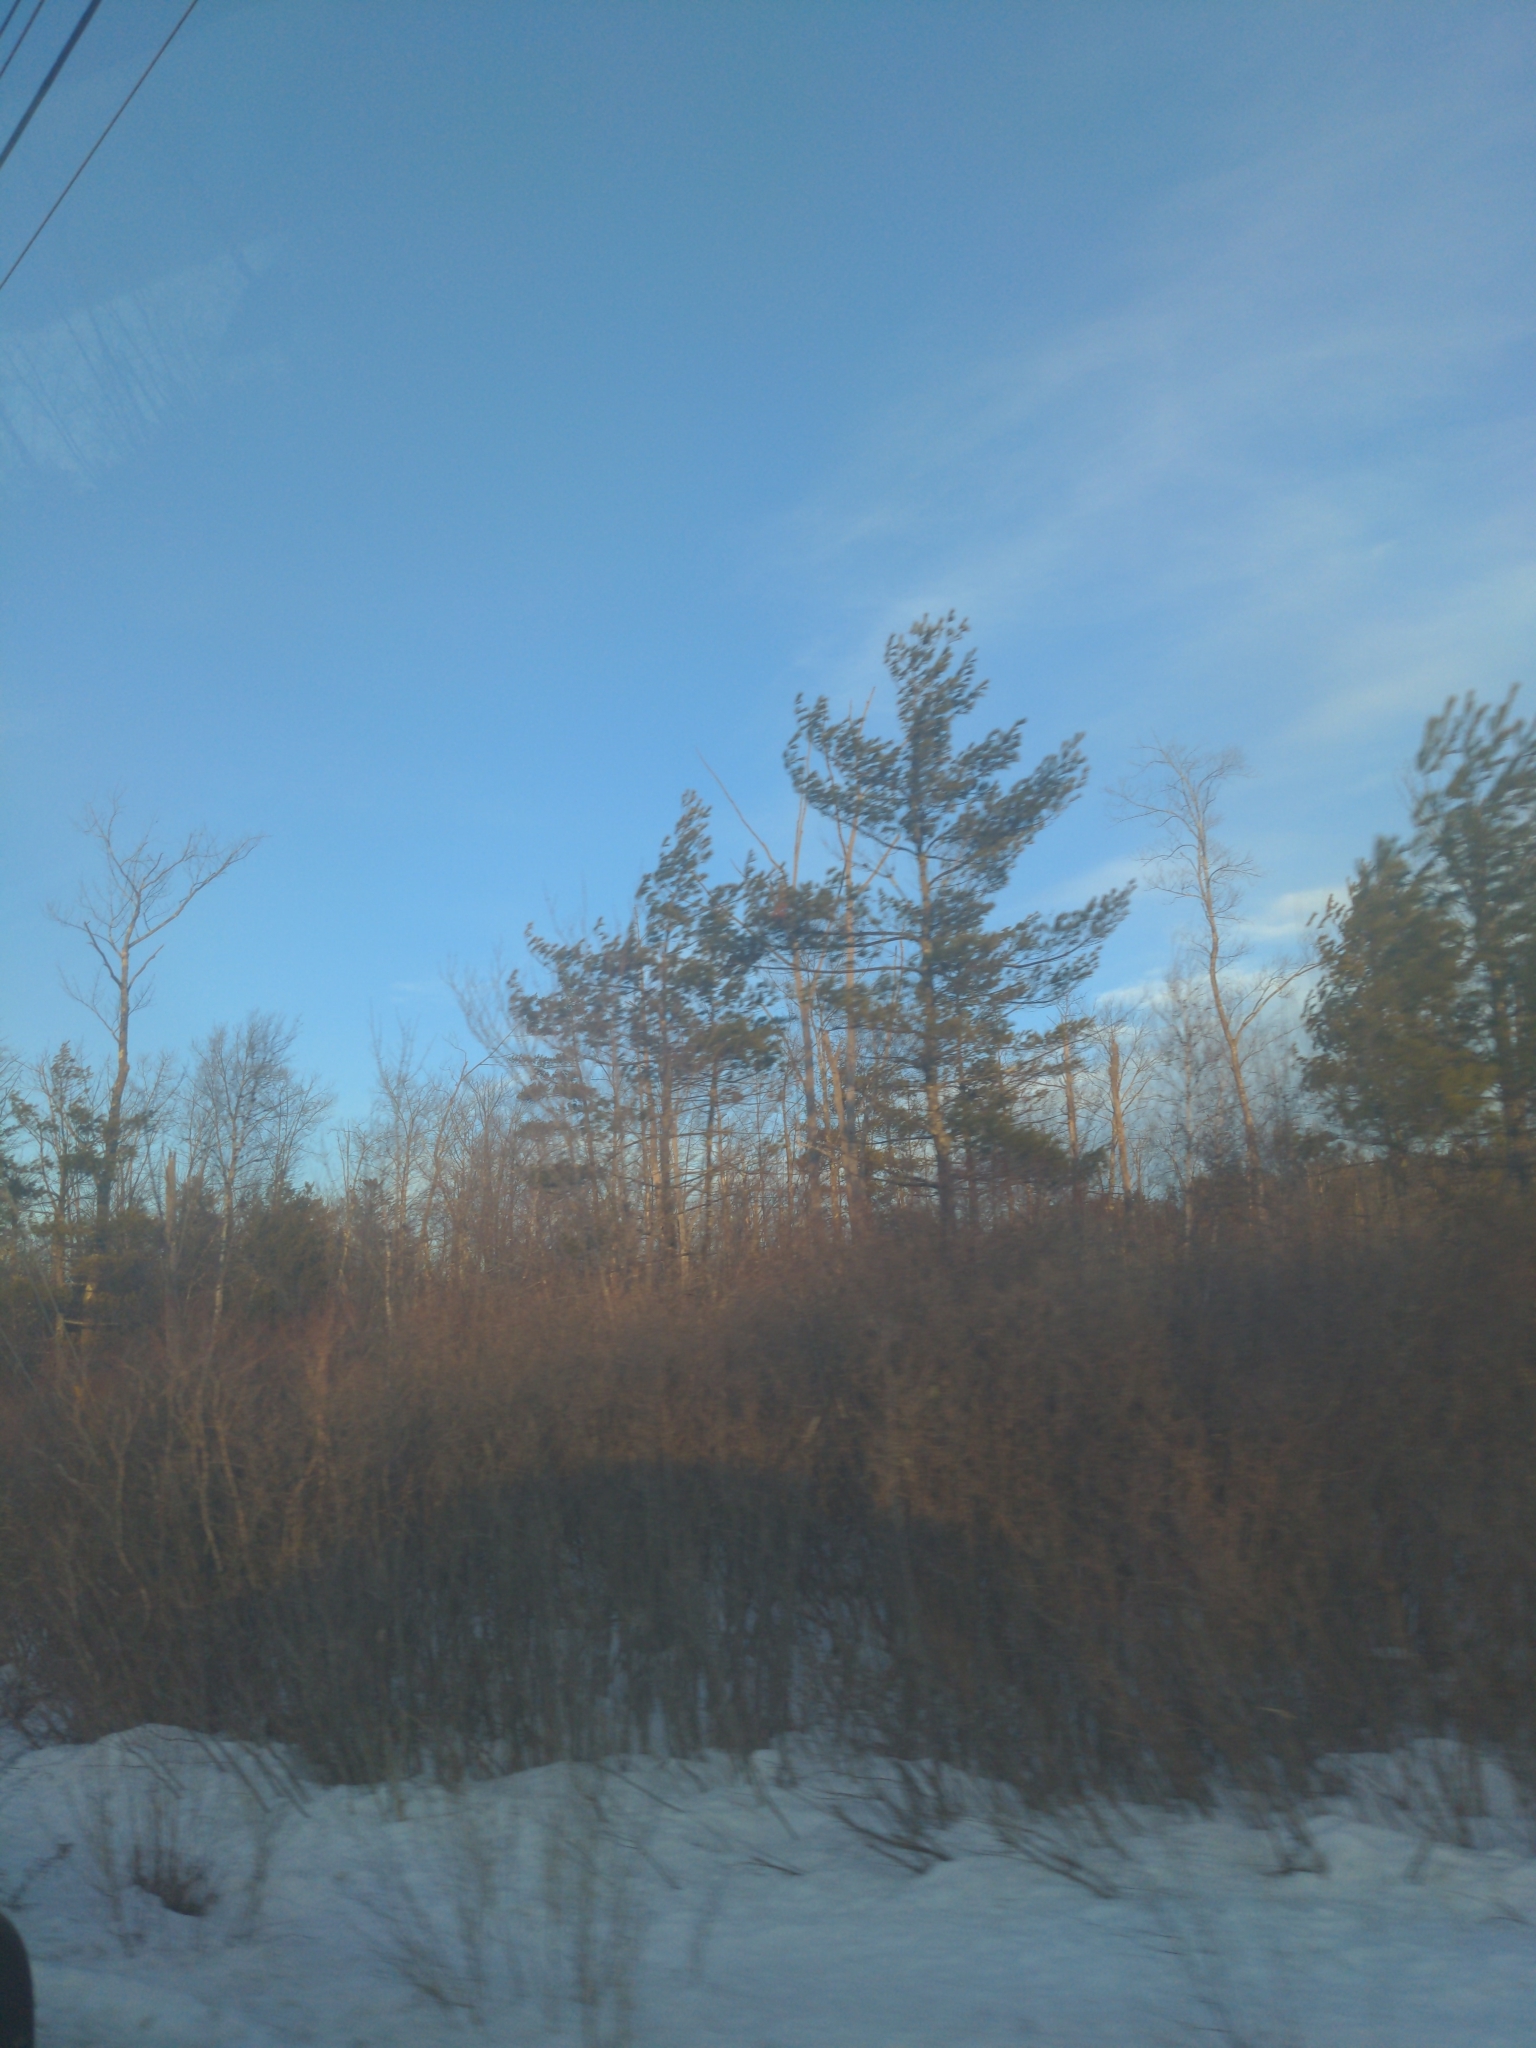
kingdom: Plantae
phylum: Tracheophyta
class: Pinopsida
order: Pinales
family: Pinaceae
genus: Pinus
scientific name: Pinus strobus
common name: Weymouth pine
